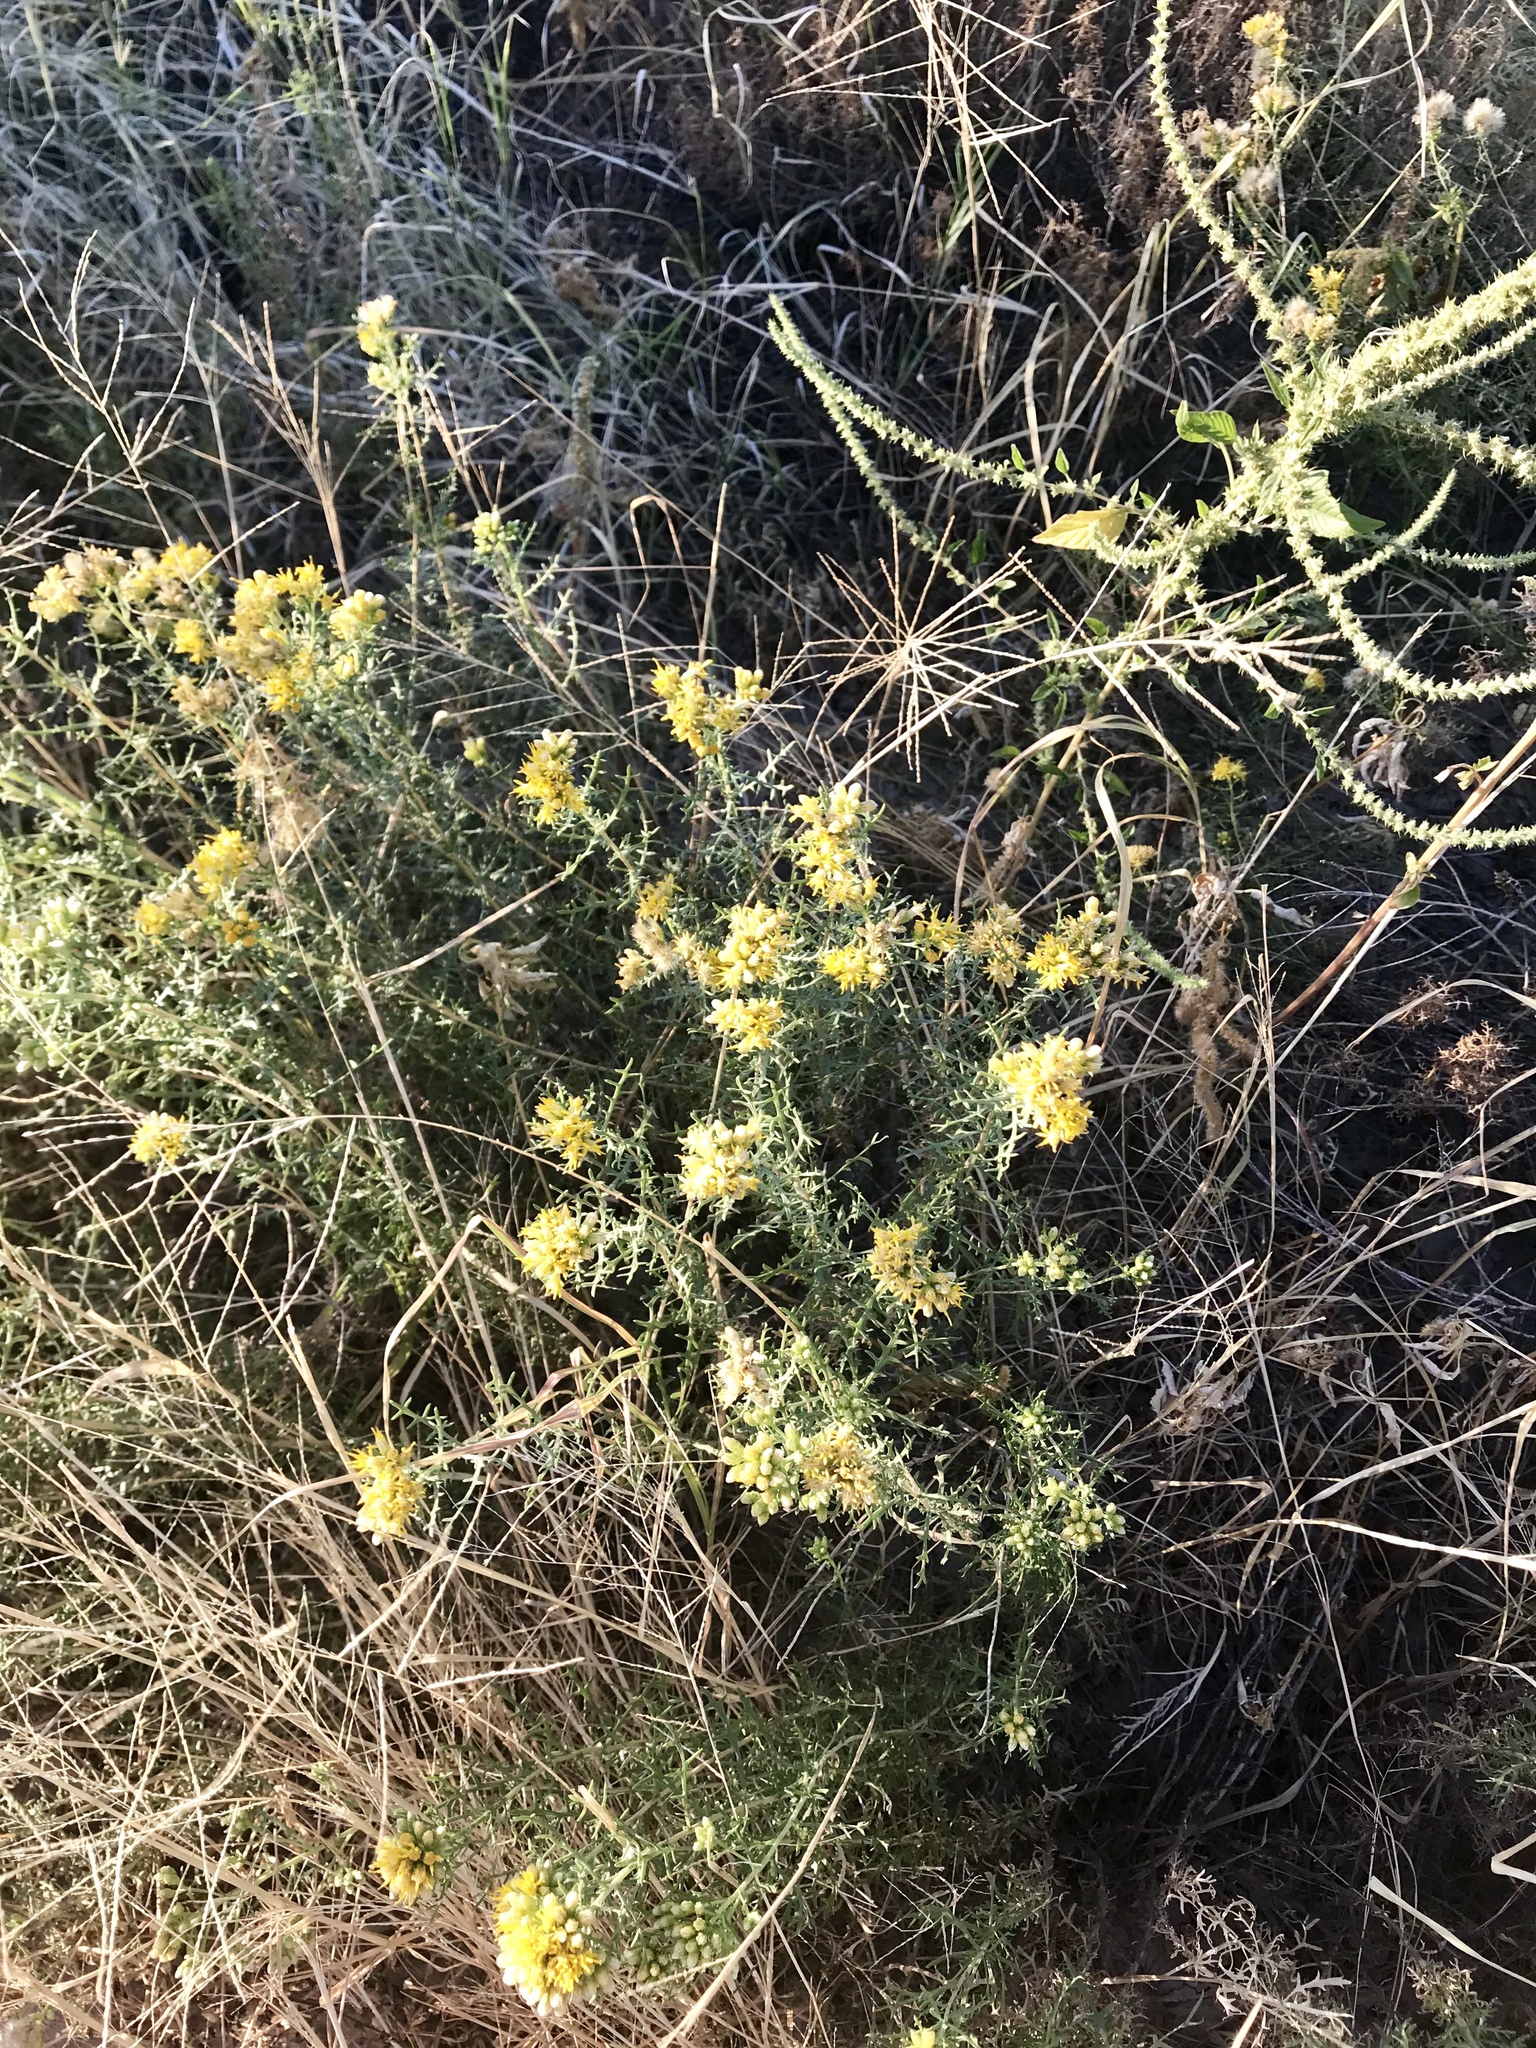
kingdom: Plantae
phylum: Tracheophyta
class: Magnoliopsida
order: Asterales
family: Asteraceae
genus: Isocoma
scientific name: Isocoma tenuisecta
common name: Burroweed
